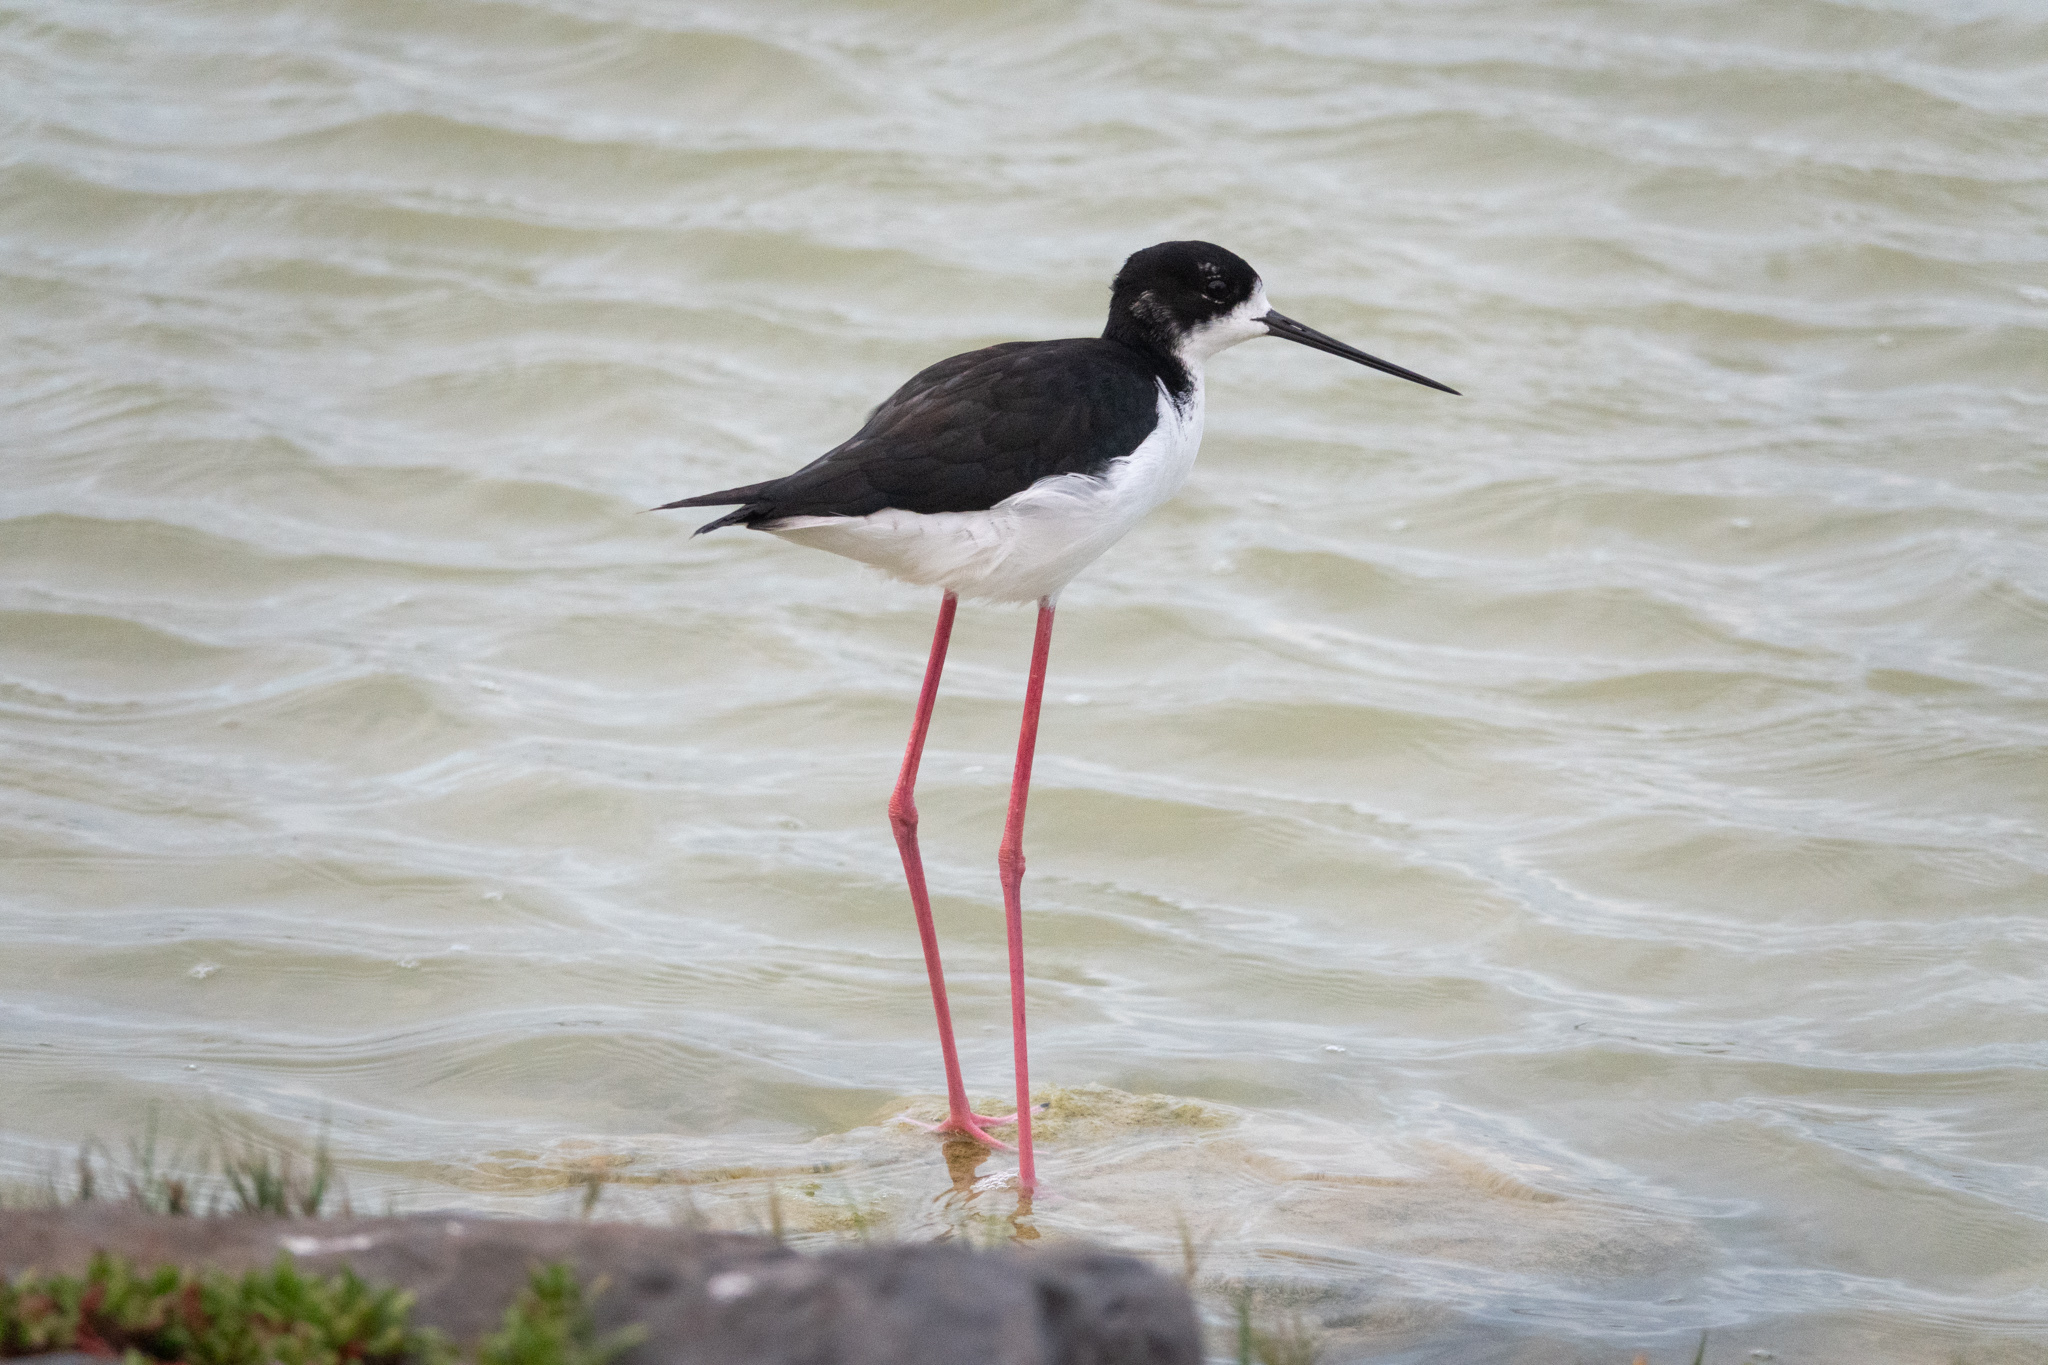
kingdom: Animalia
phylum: Chordata
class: Aves
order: Charadriiformes
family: Recurvirostridae
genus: Himantopus
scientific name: Himantopus mexicanus
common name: Black-necked stilt
